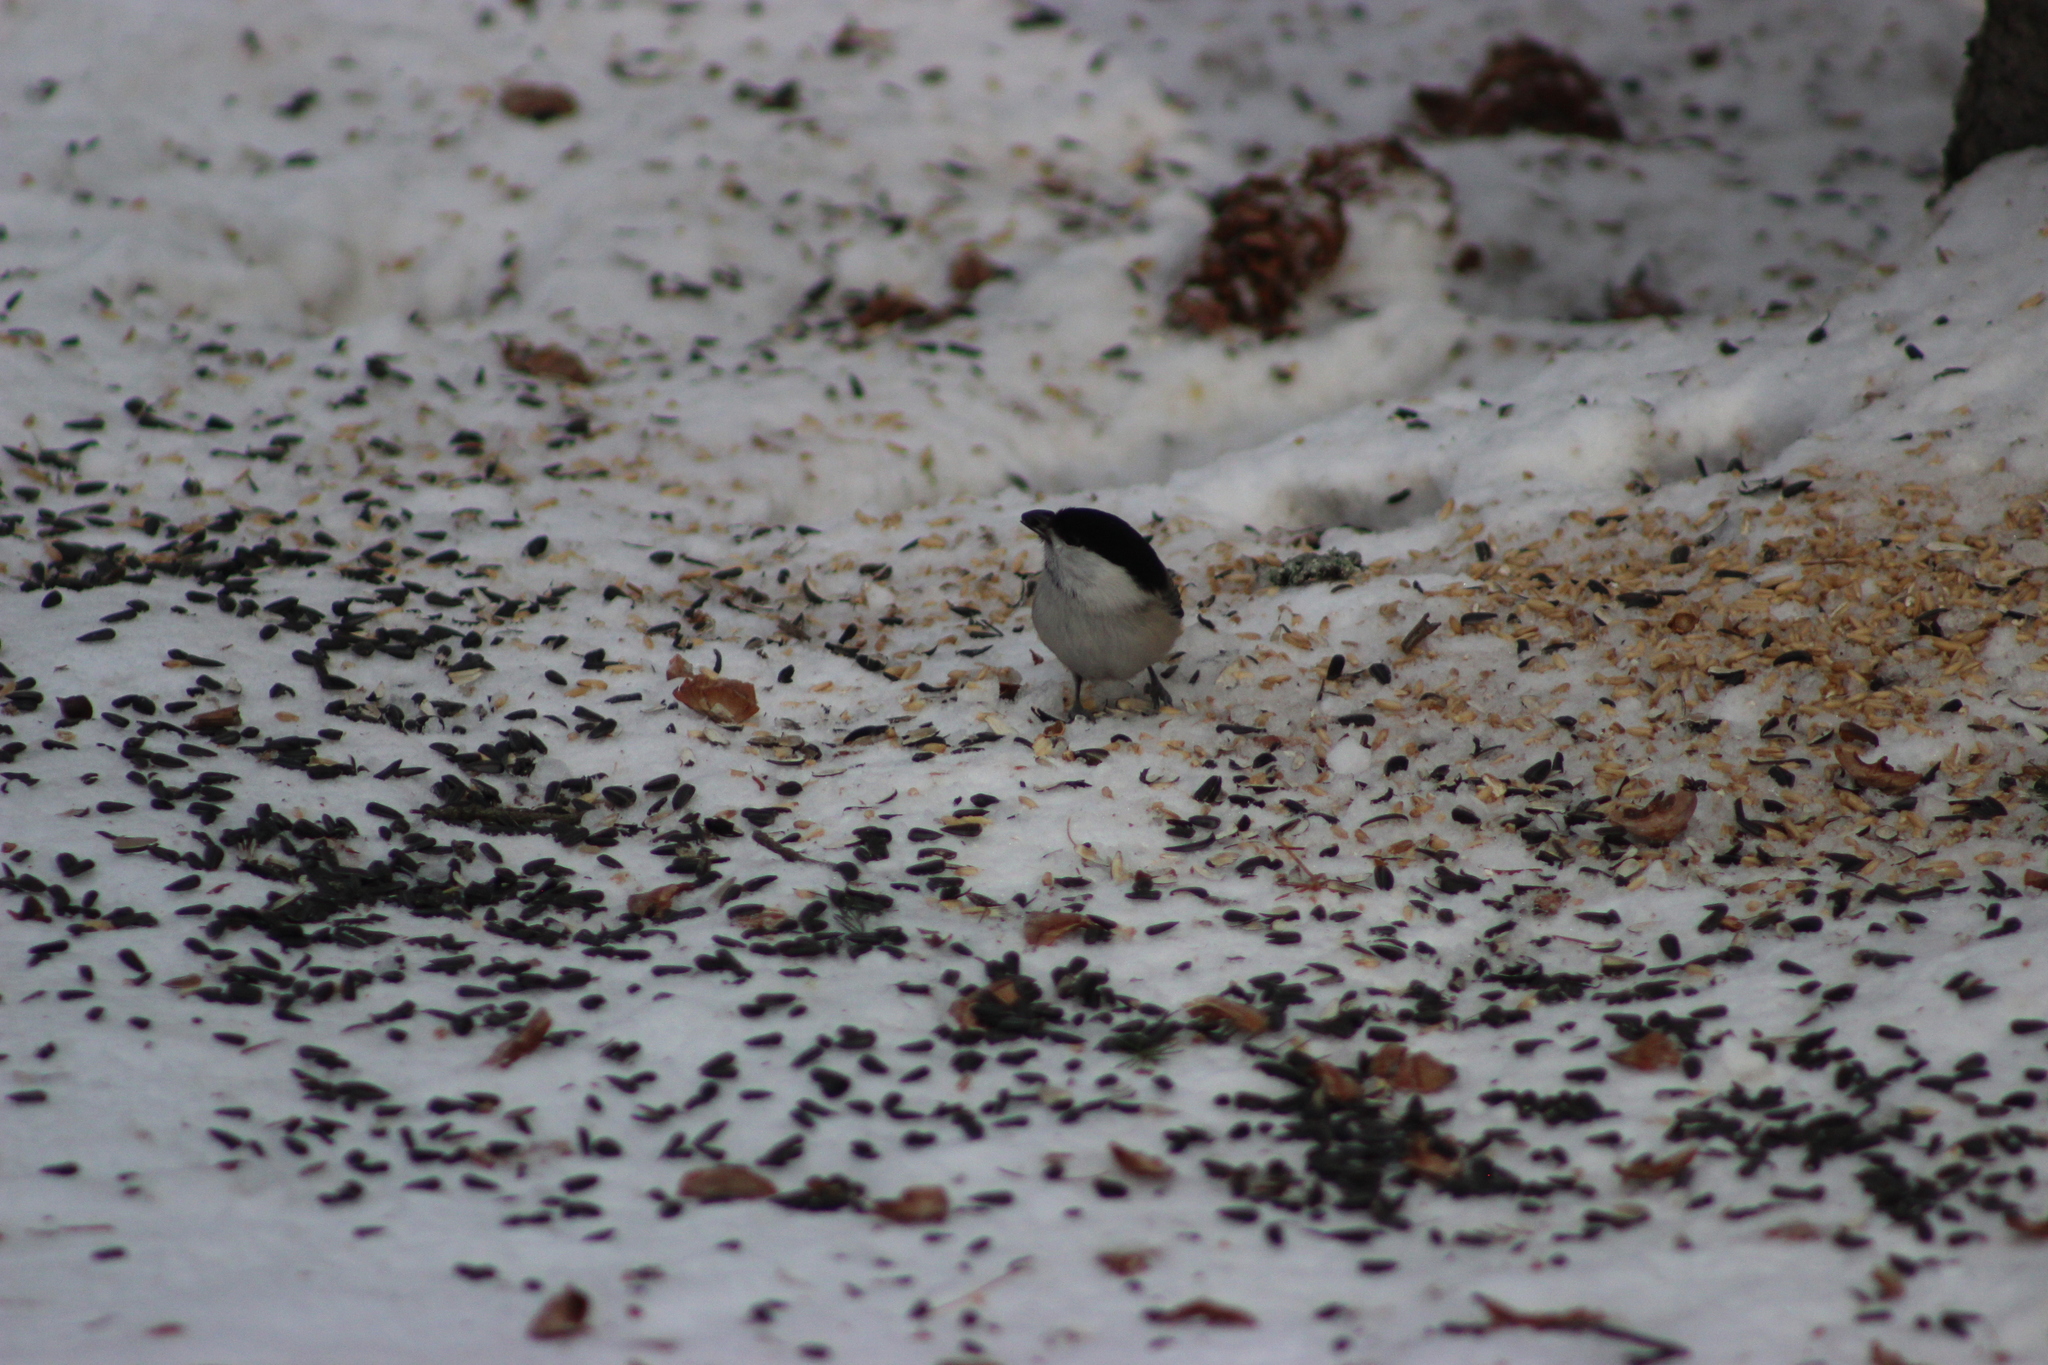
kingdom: Animalia
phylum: Chordata
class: Aves
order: Passeriformes
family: Paridae
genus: Poecile
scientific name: Poecile montanus
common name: Willow tit
